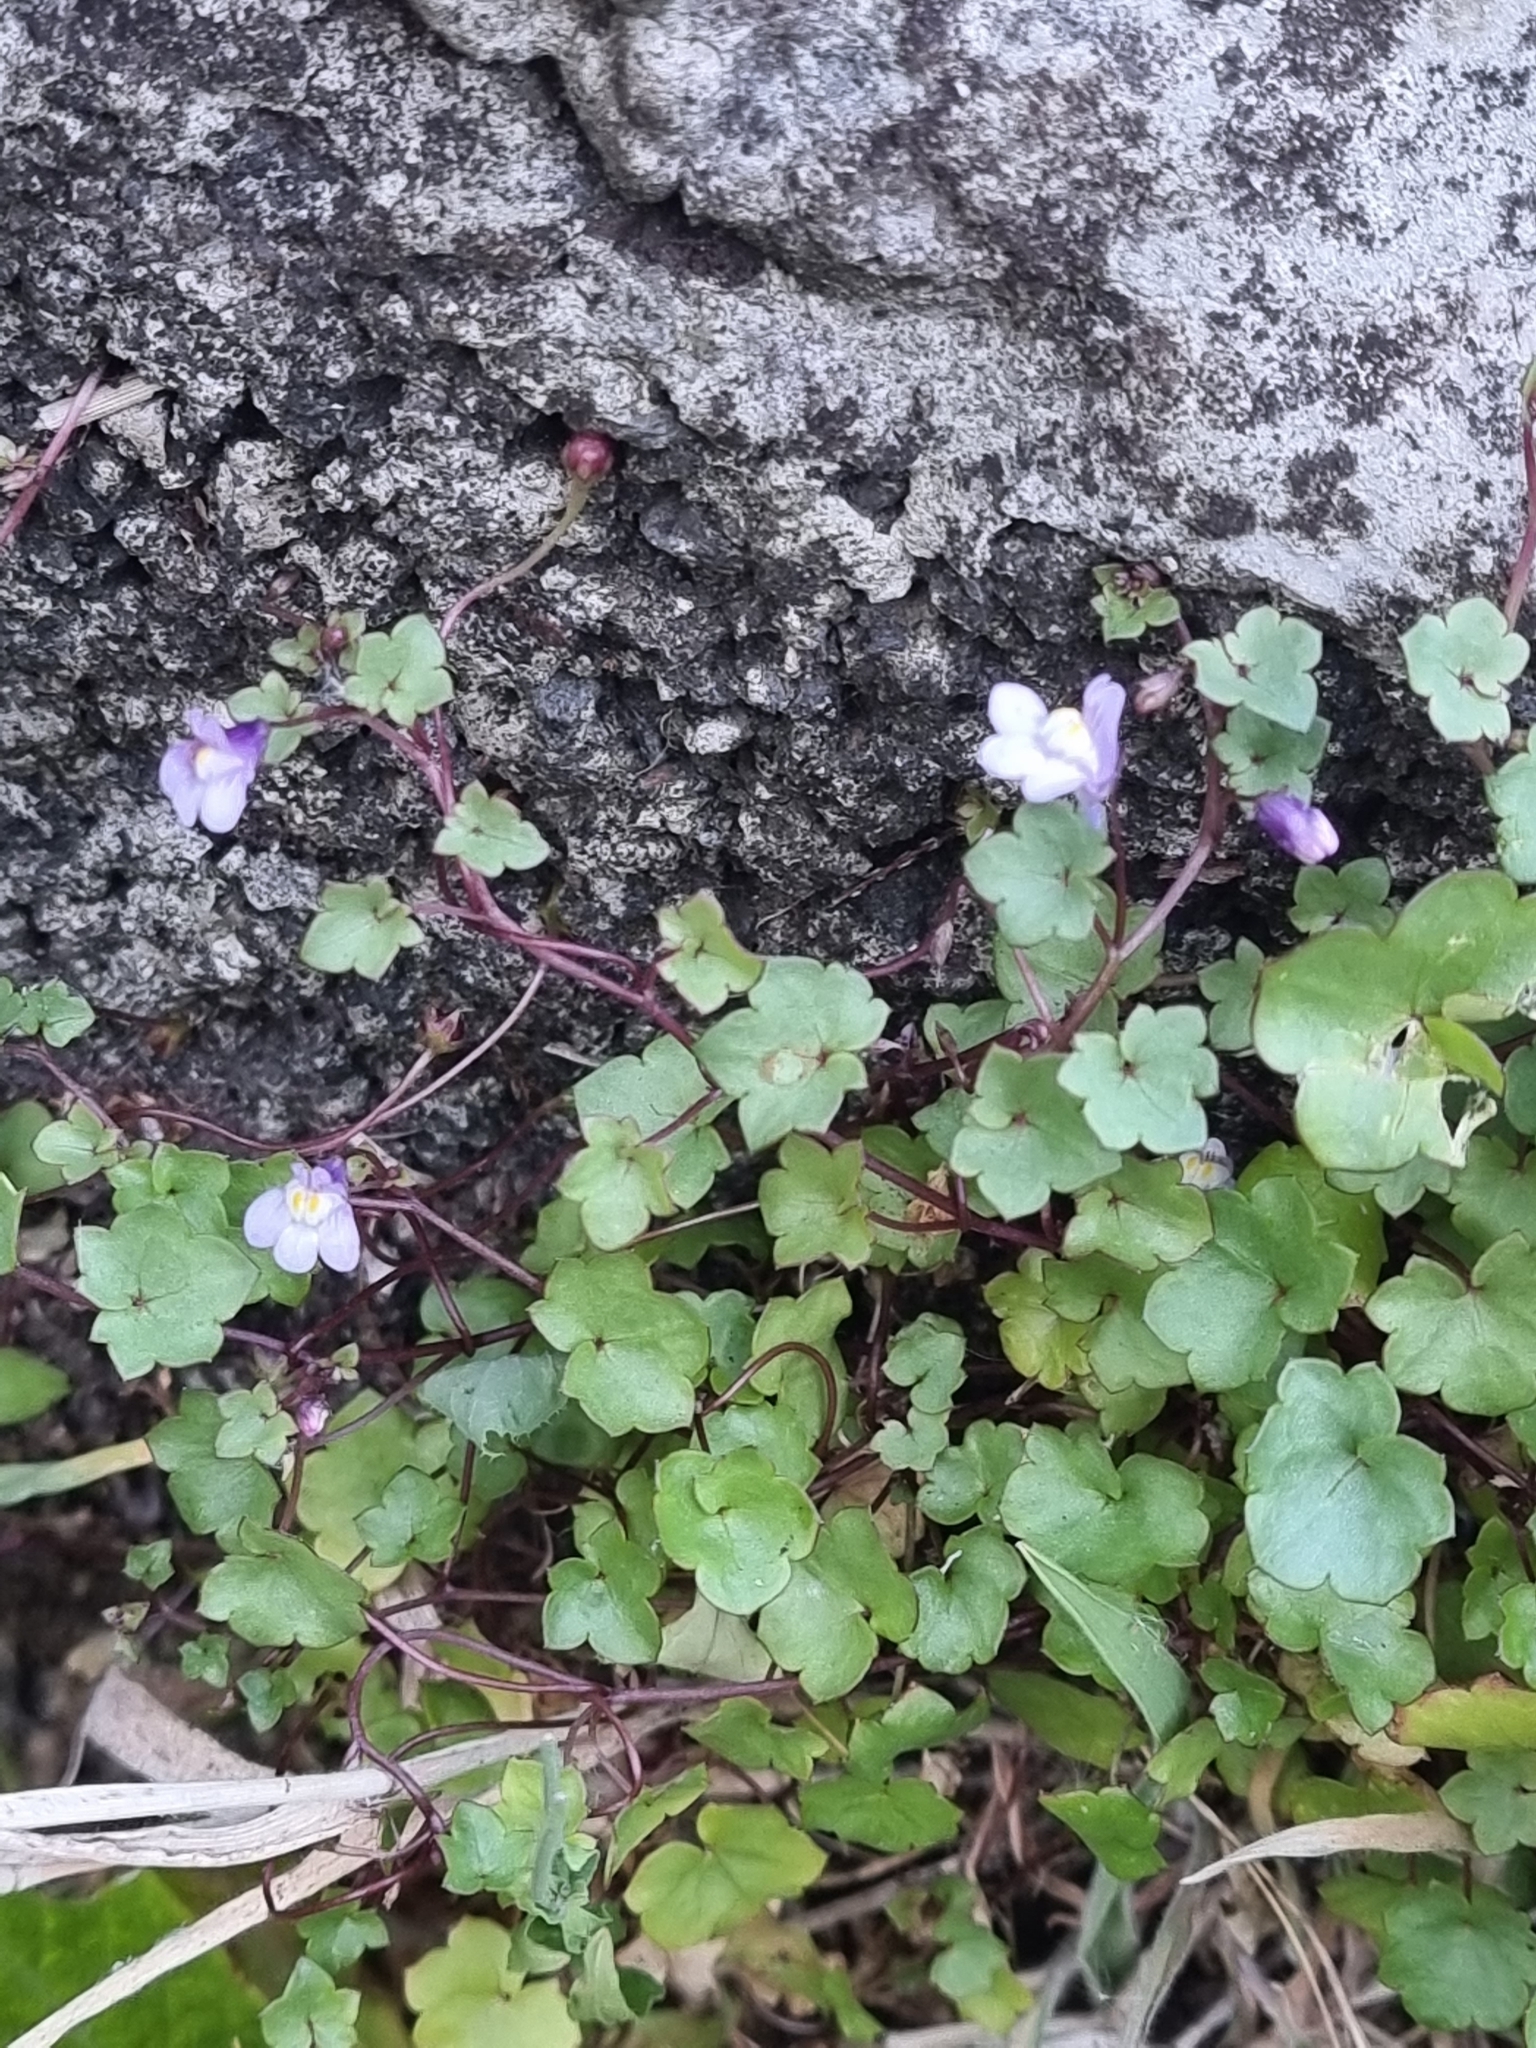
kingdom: Plantae
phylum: Tracheophyta
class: Magnoliopsida
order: Lamiales
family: Plantaginaceae
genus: Cymbalaria
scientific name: Cymbalaria muralis
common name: Ivy-leaved toadflax
